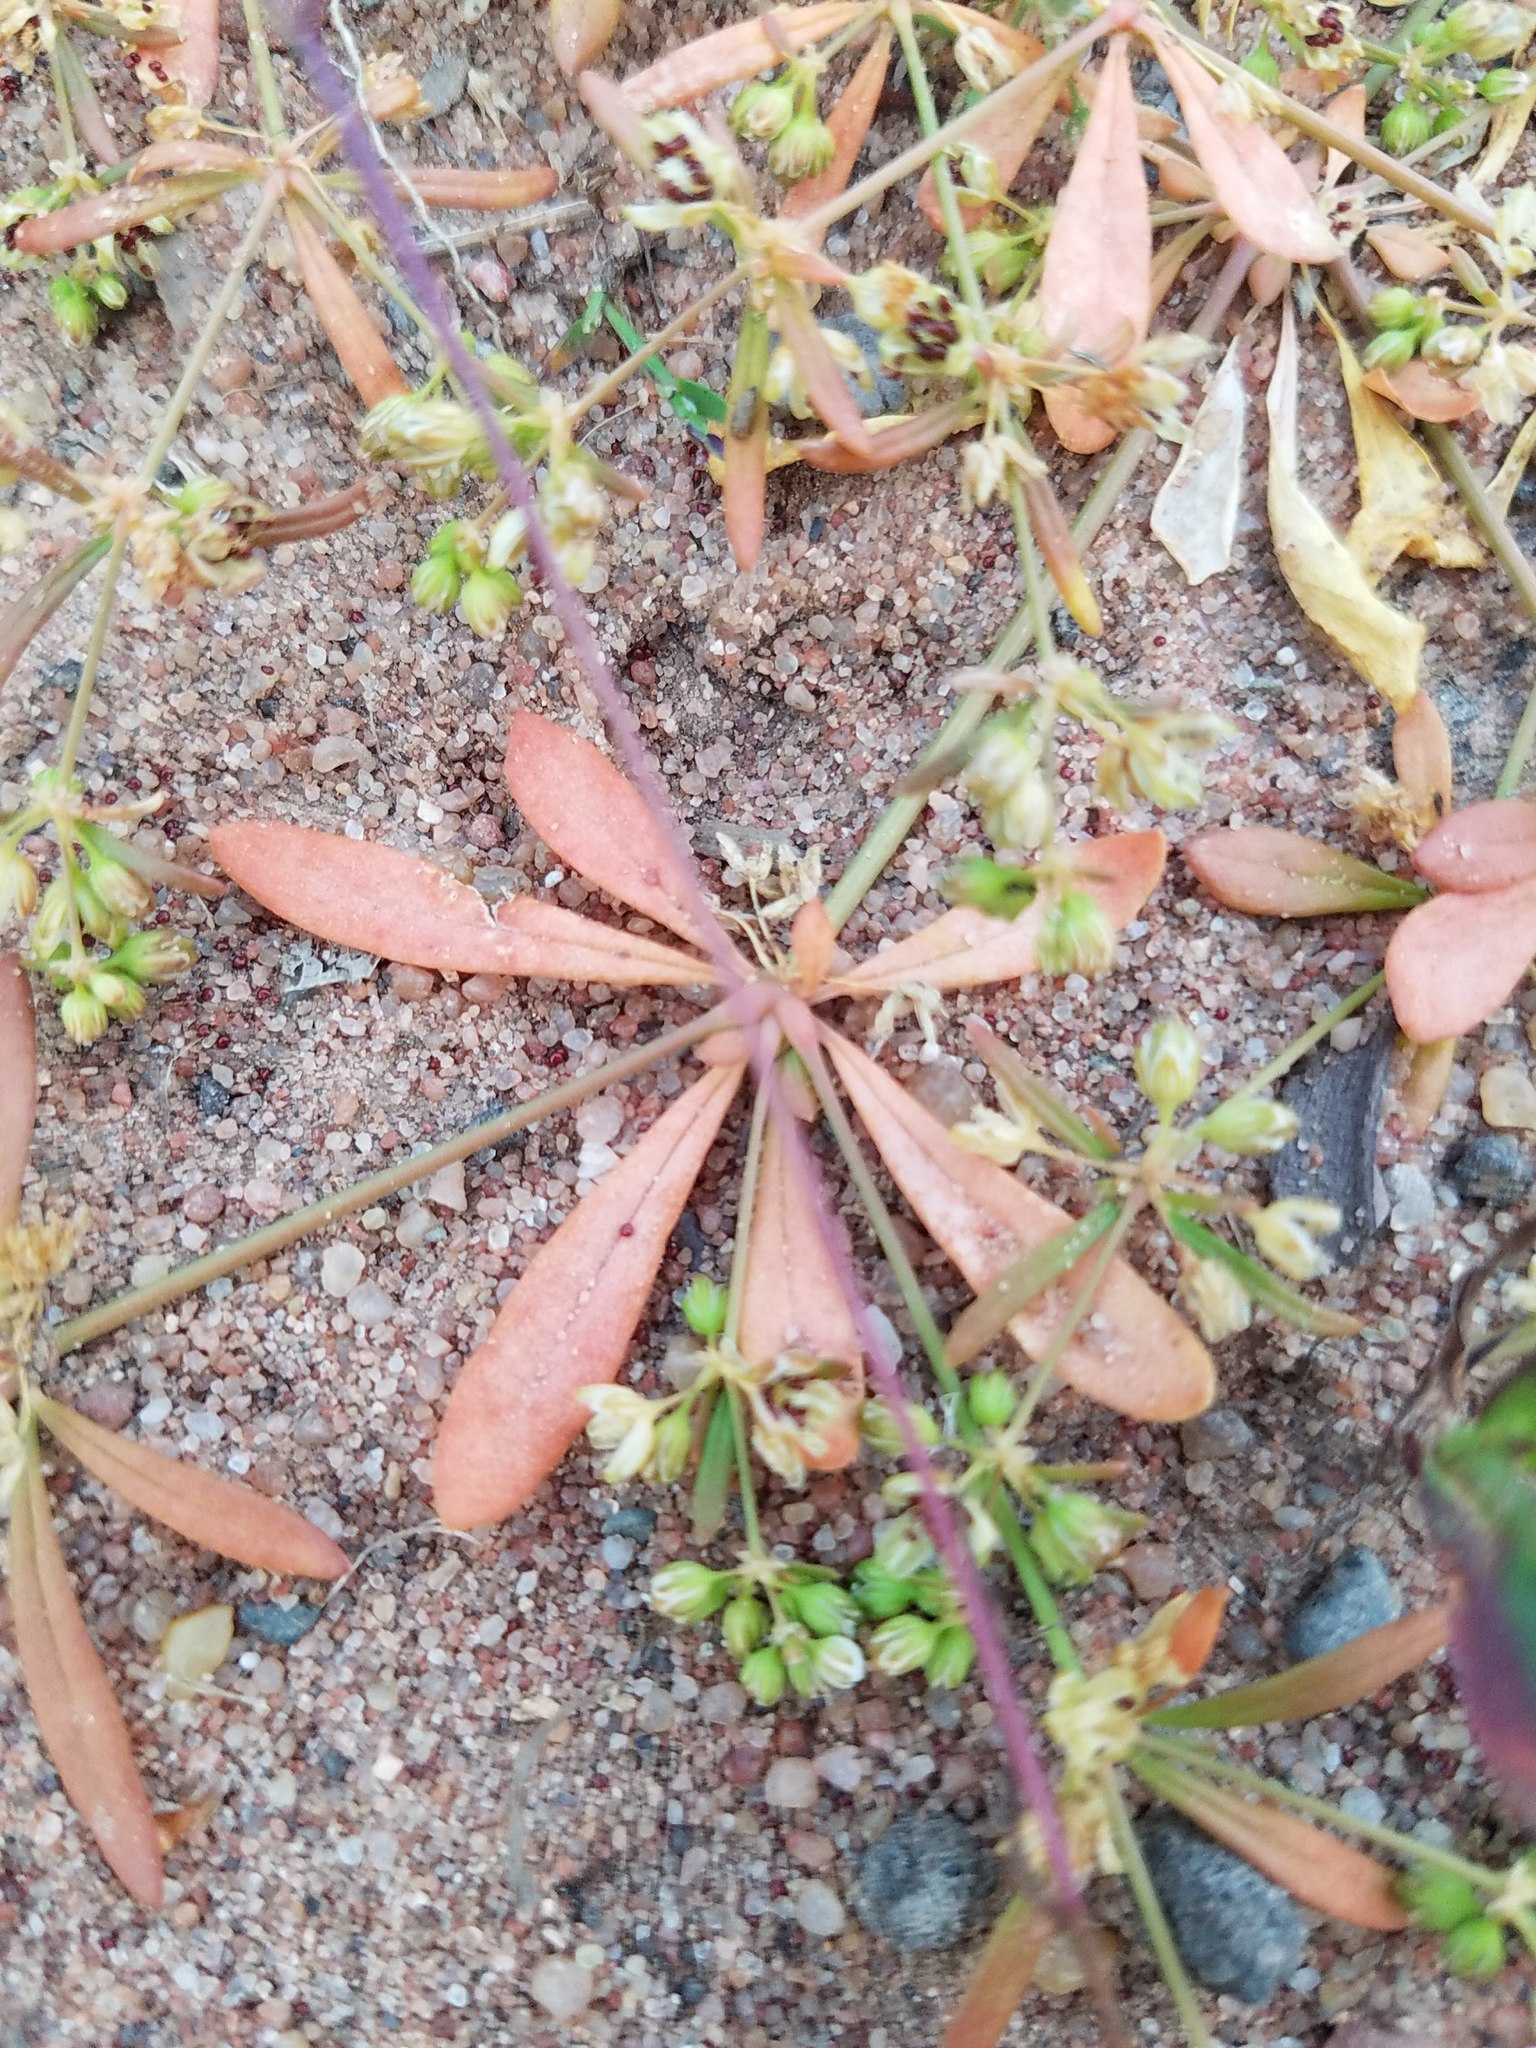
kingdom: Plantae
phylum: Tracheophyta
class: Magnoliopsida
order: Caryophyllales
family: Molluginaceae
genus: Mollugo
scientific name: Mollugo verticillata
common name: Green carpetweed
